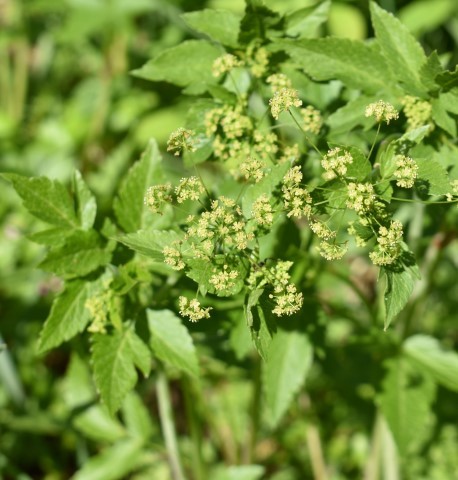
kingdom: Plantae
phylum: Tracheophyta
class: Magnoliopsida
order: Apiales
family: Apiaceae
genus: Osmorhiza
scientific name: Osmorhiza occidentalis
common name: Western sweet cicely
